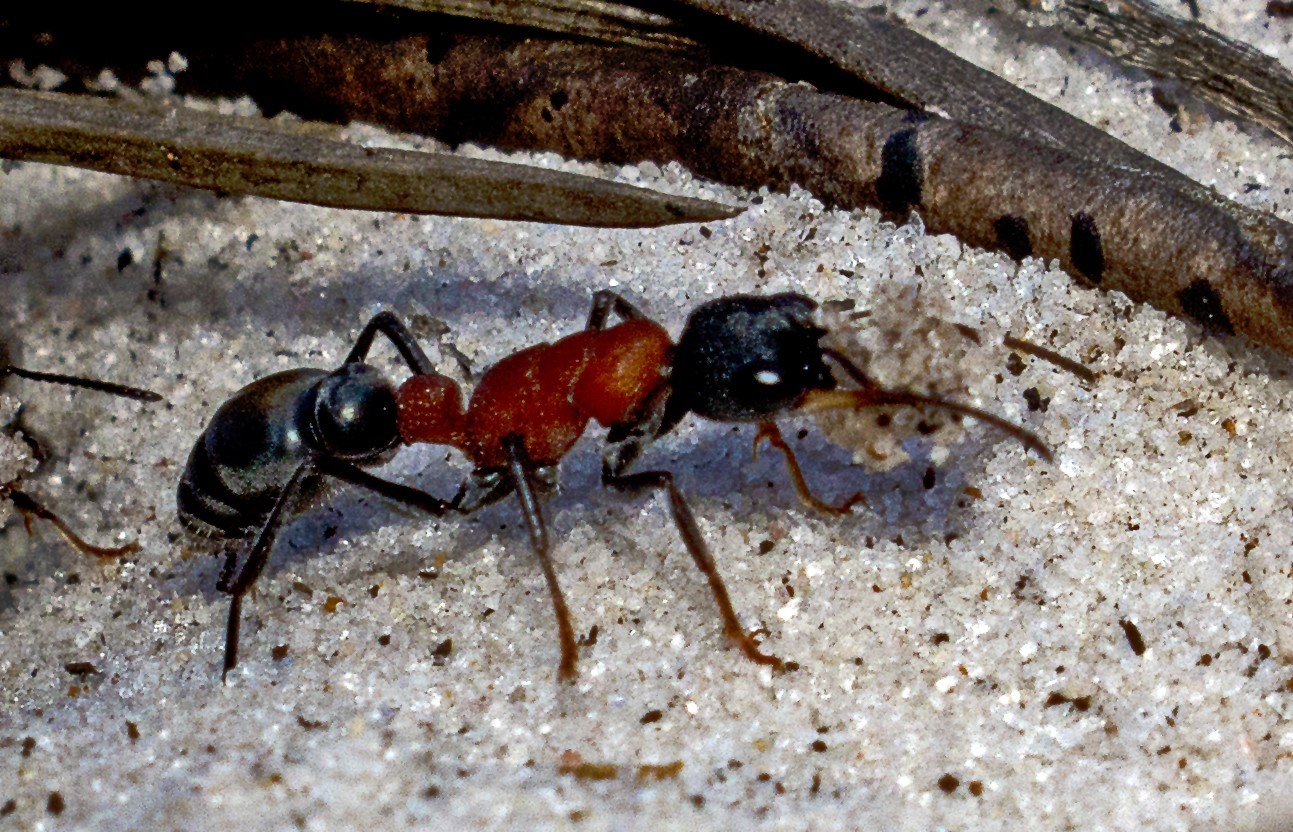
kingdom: Animalia
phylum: Arthropoda
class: Insecta
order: Hymenoptera
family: Formicidae
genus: Myrmecia
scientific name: Myrmecia swalei
